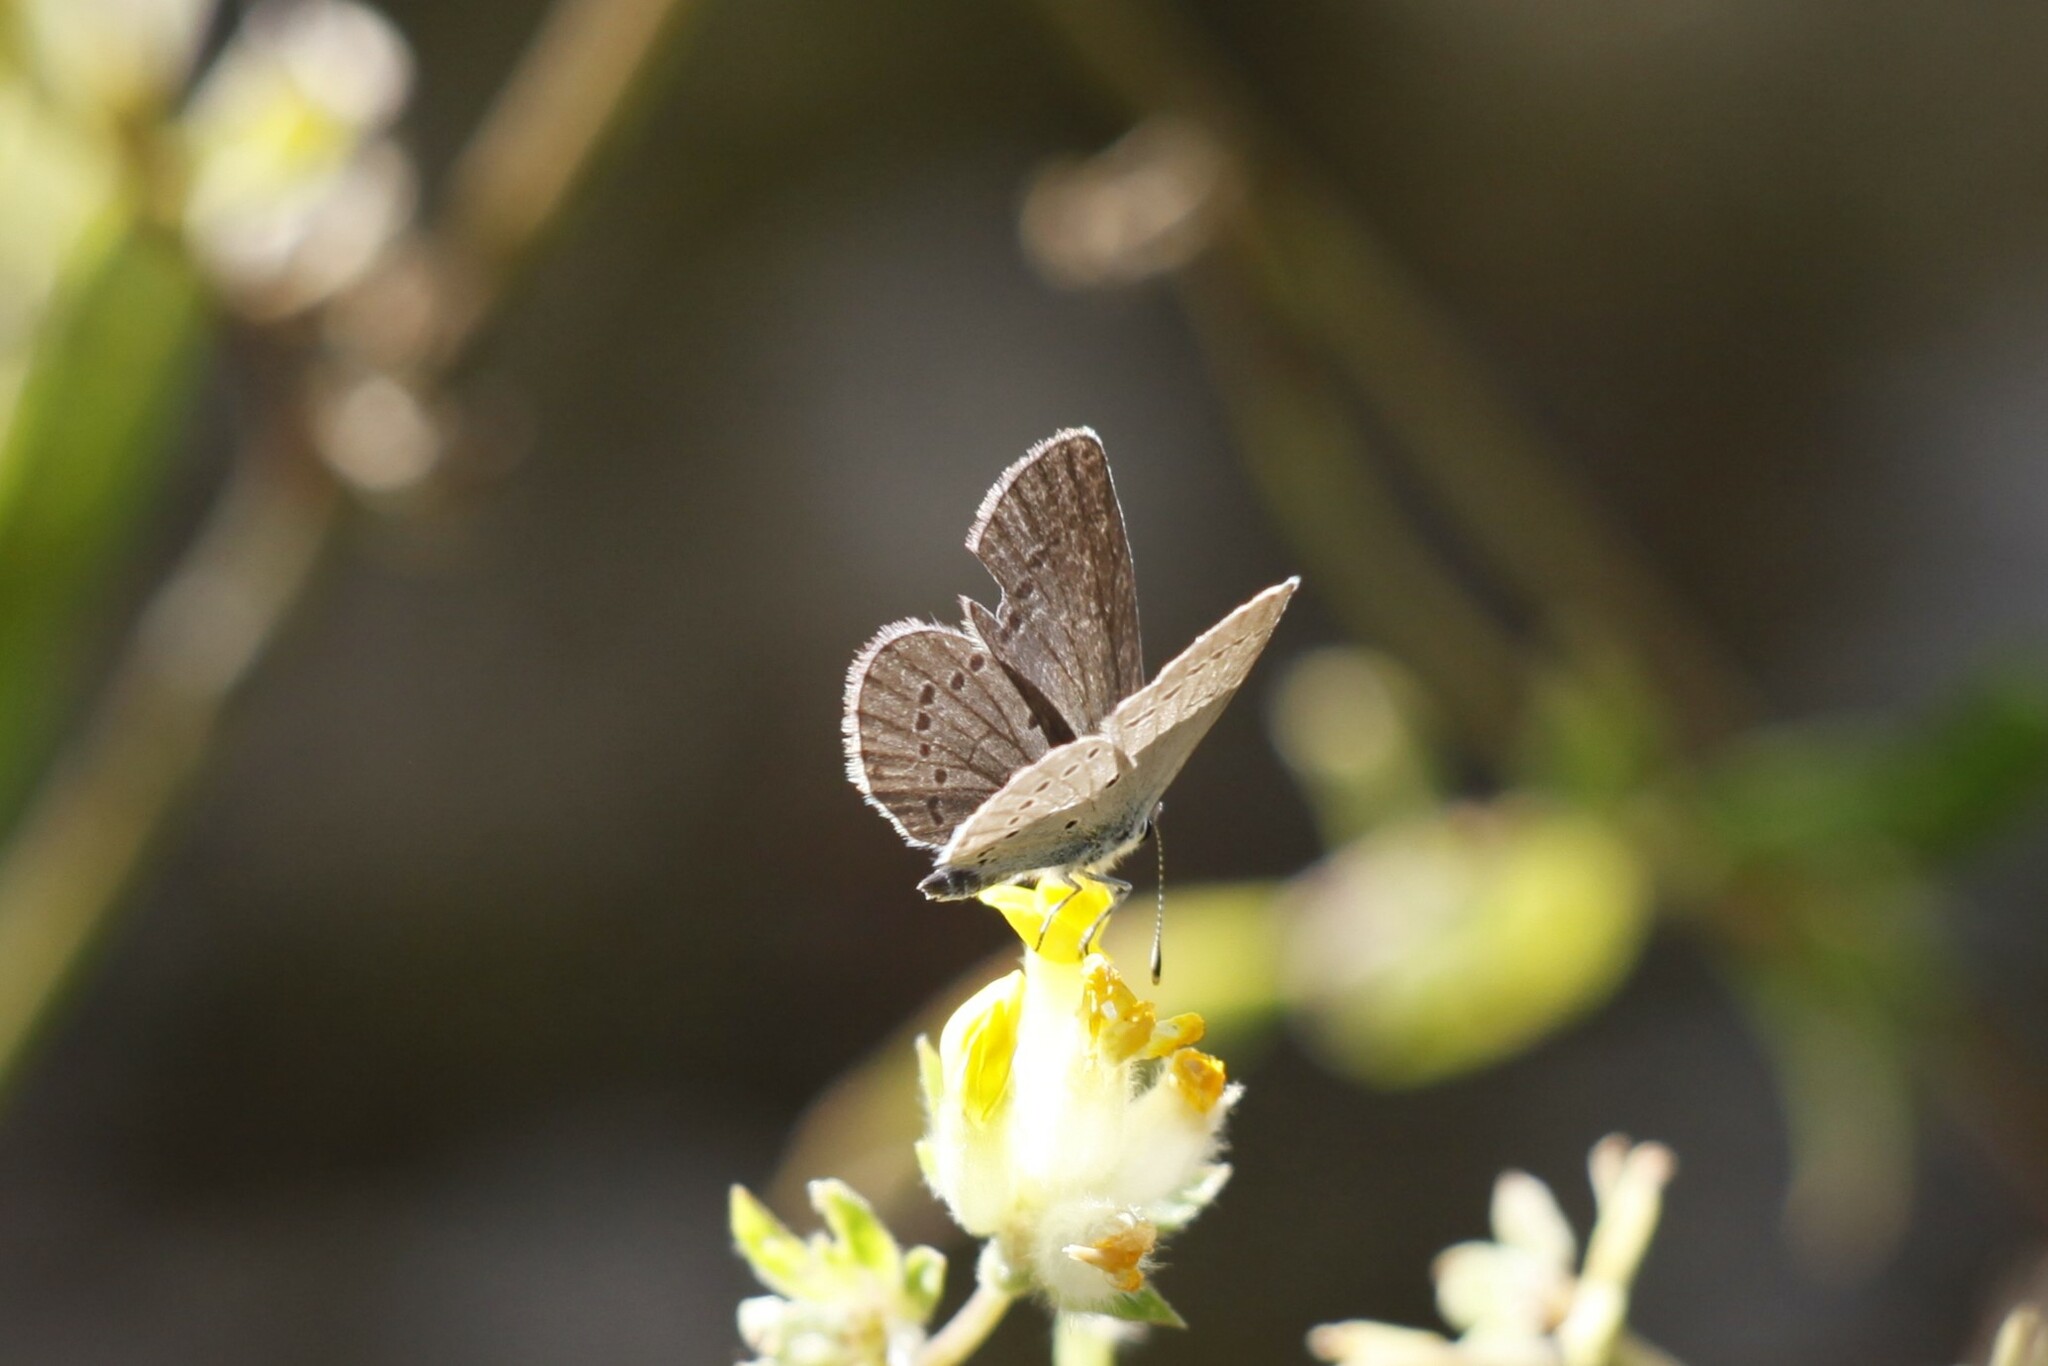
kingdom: Animalia
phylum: Arthropoda
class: Insecta
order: Lepidoptera
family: Lycaenidae
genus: Cupido
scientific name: Cupido minimus
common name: Small blue
